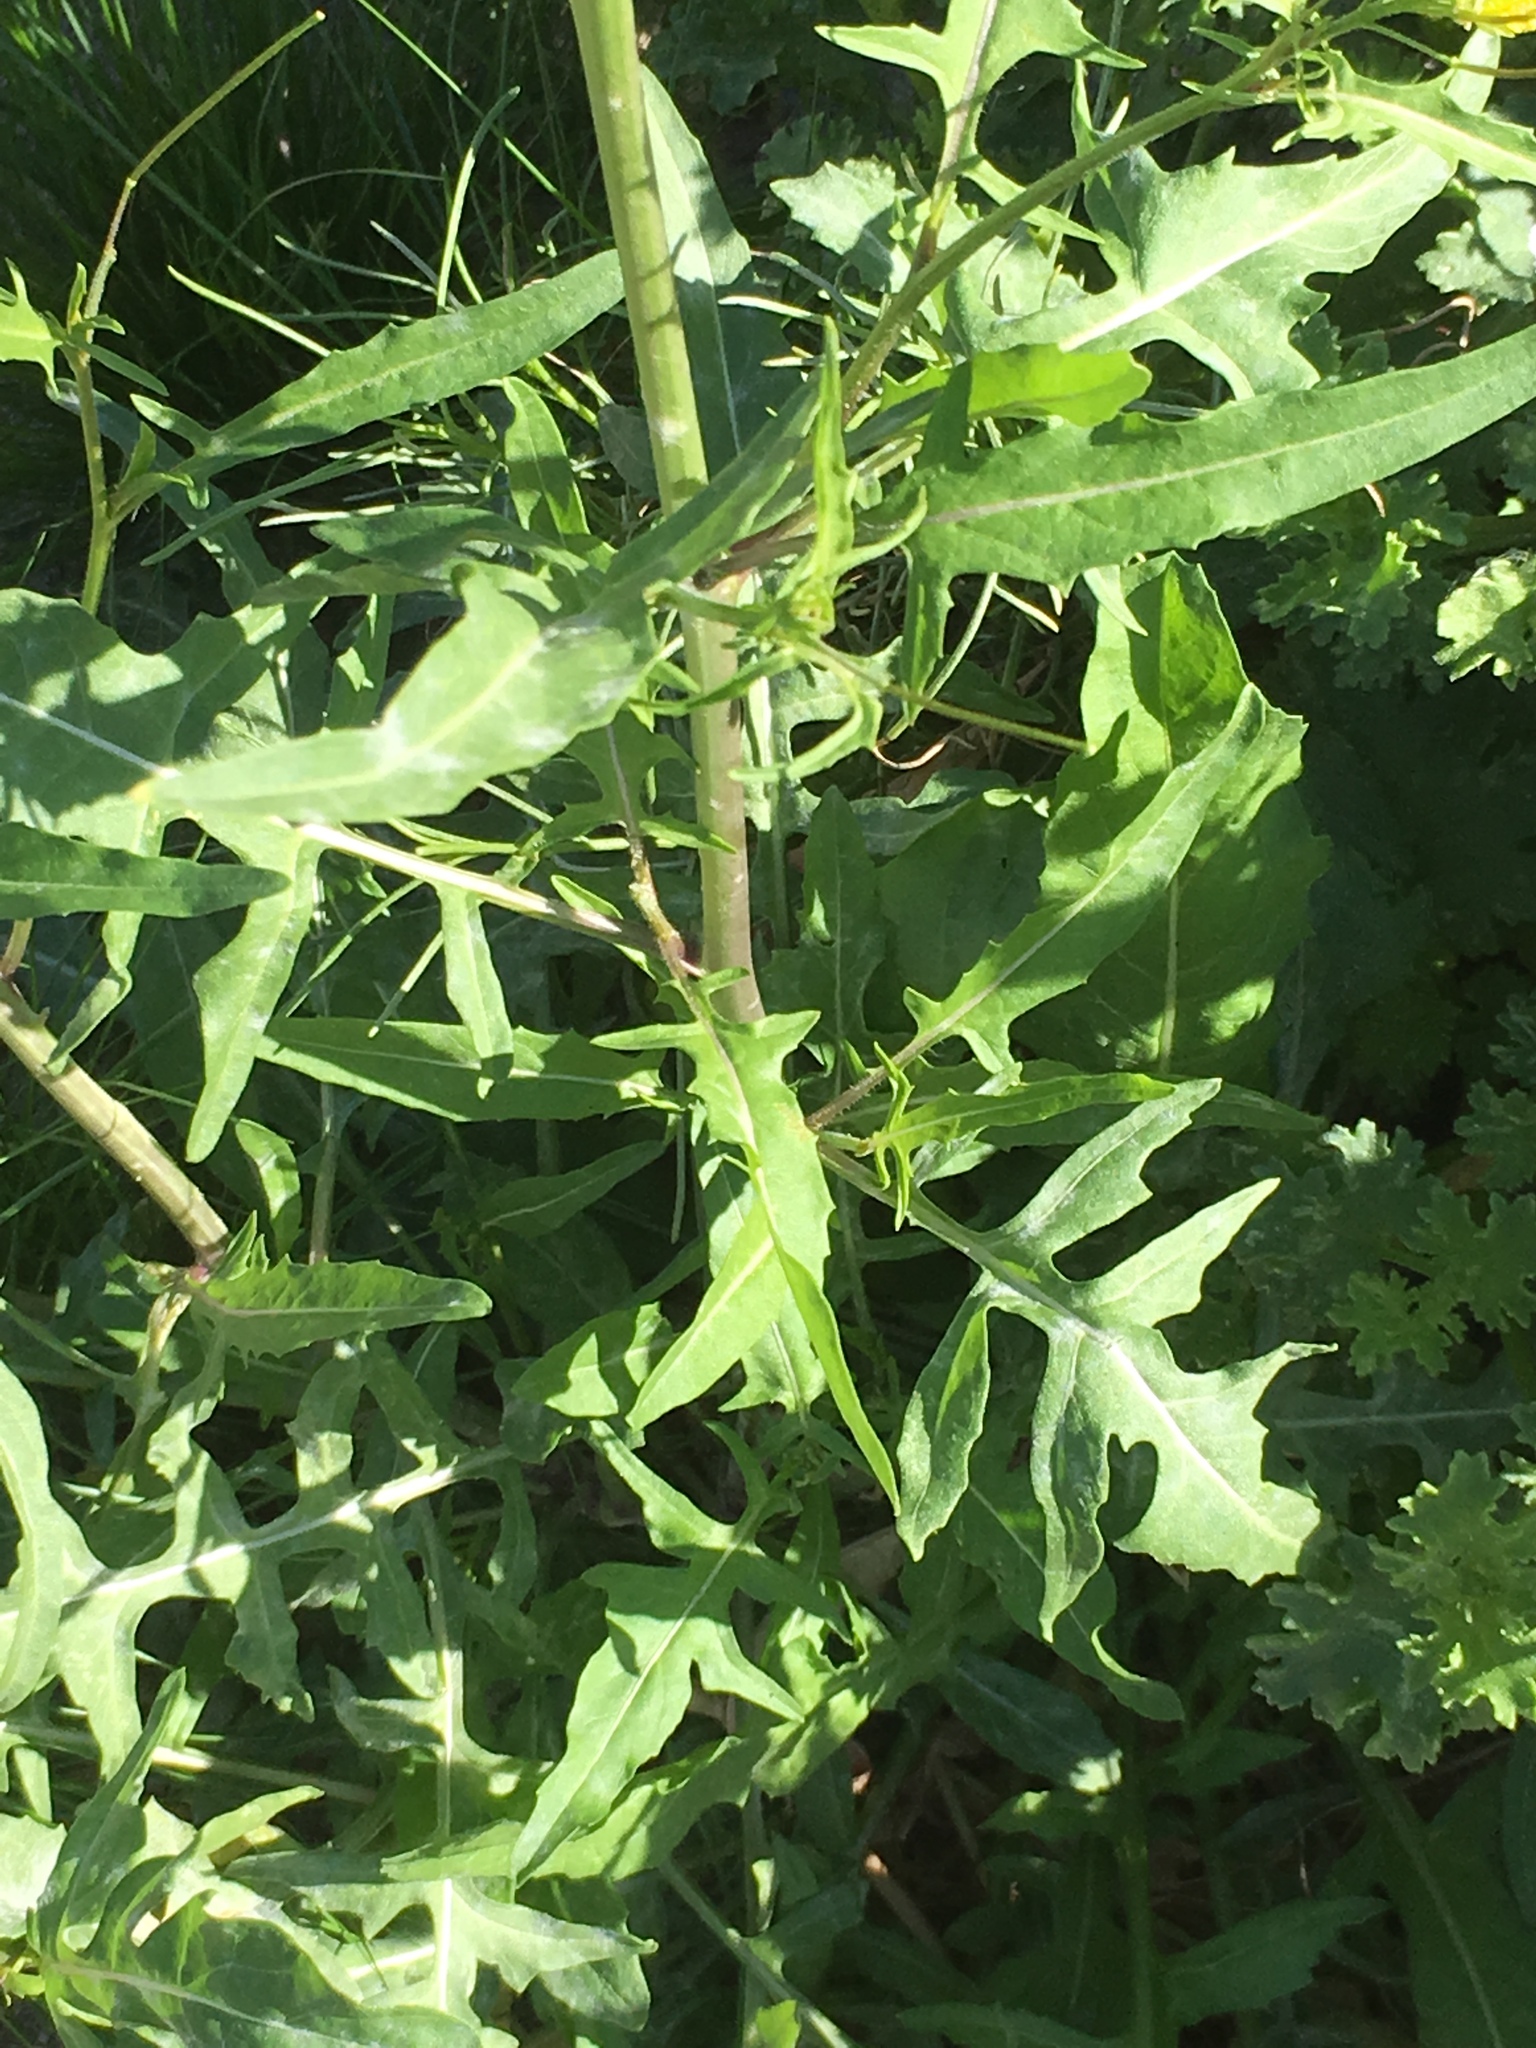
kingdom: Plantae
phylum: Tracheophyta
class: Magnoliopsida
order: Brassicales
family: Brassicaceae
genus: Sisymbrium
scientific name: Sisymbrium irio
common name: London rocket
